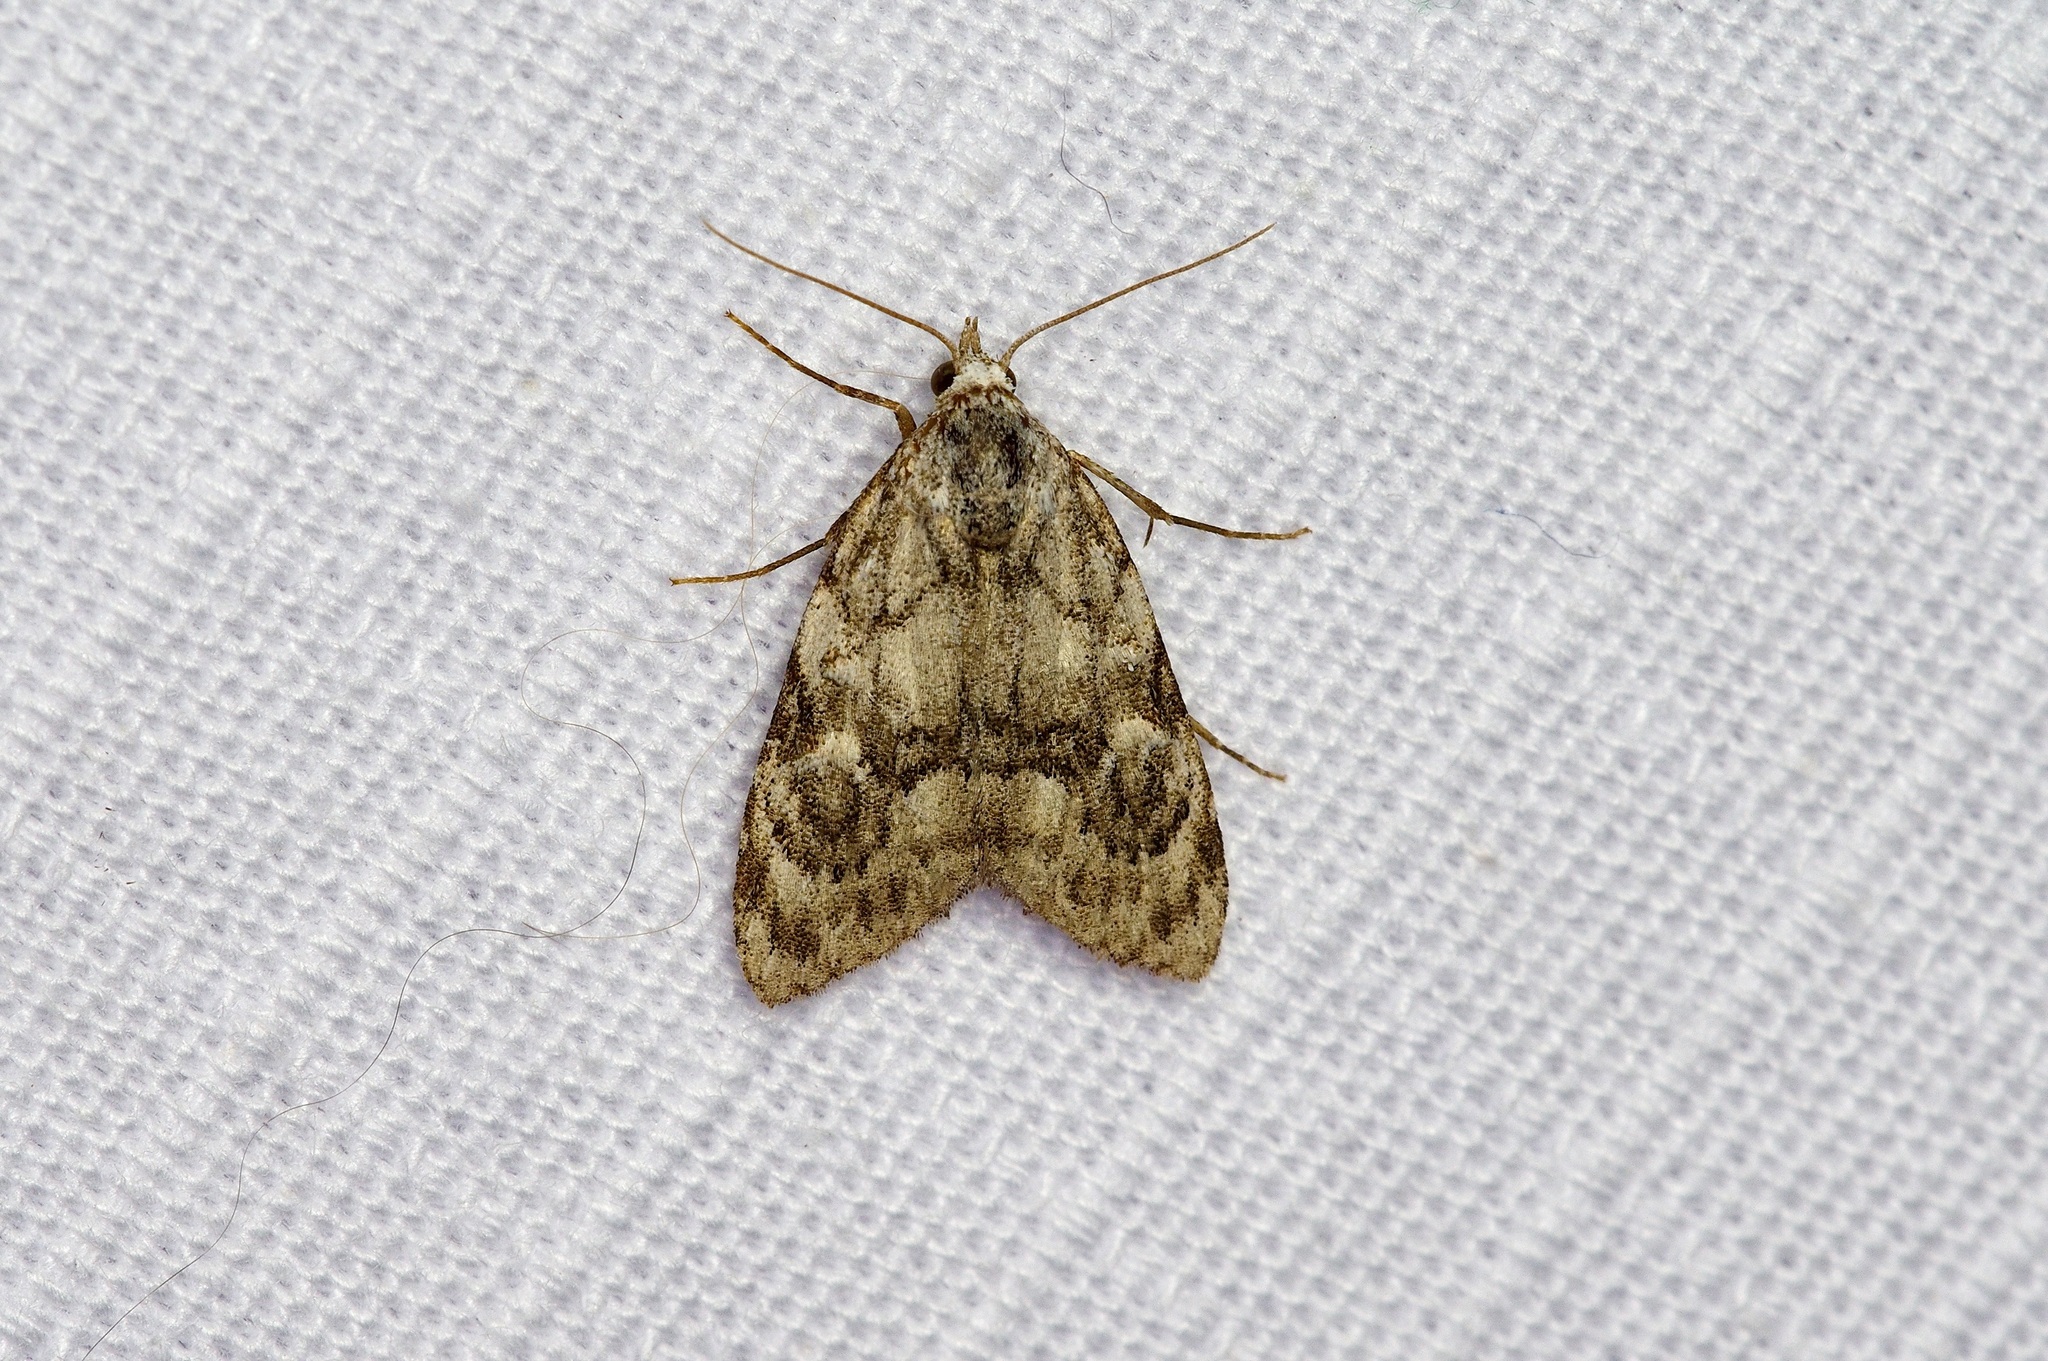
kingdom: Animalia
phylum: Arthropoda
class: Insecta
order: Lepidoptera
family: Nolidae
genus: Meganola
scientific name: Meganola minuscula
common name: Confused meganola moth
